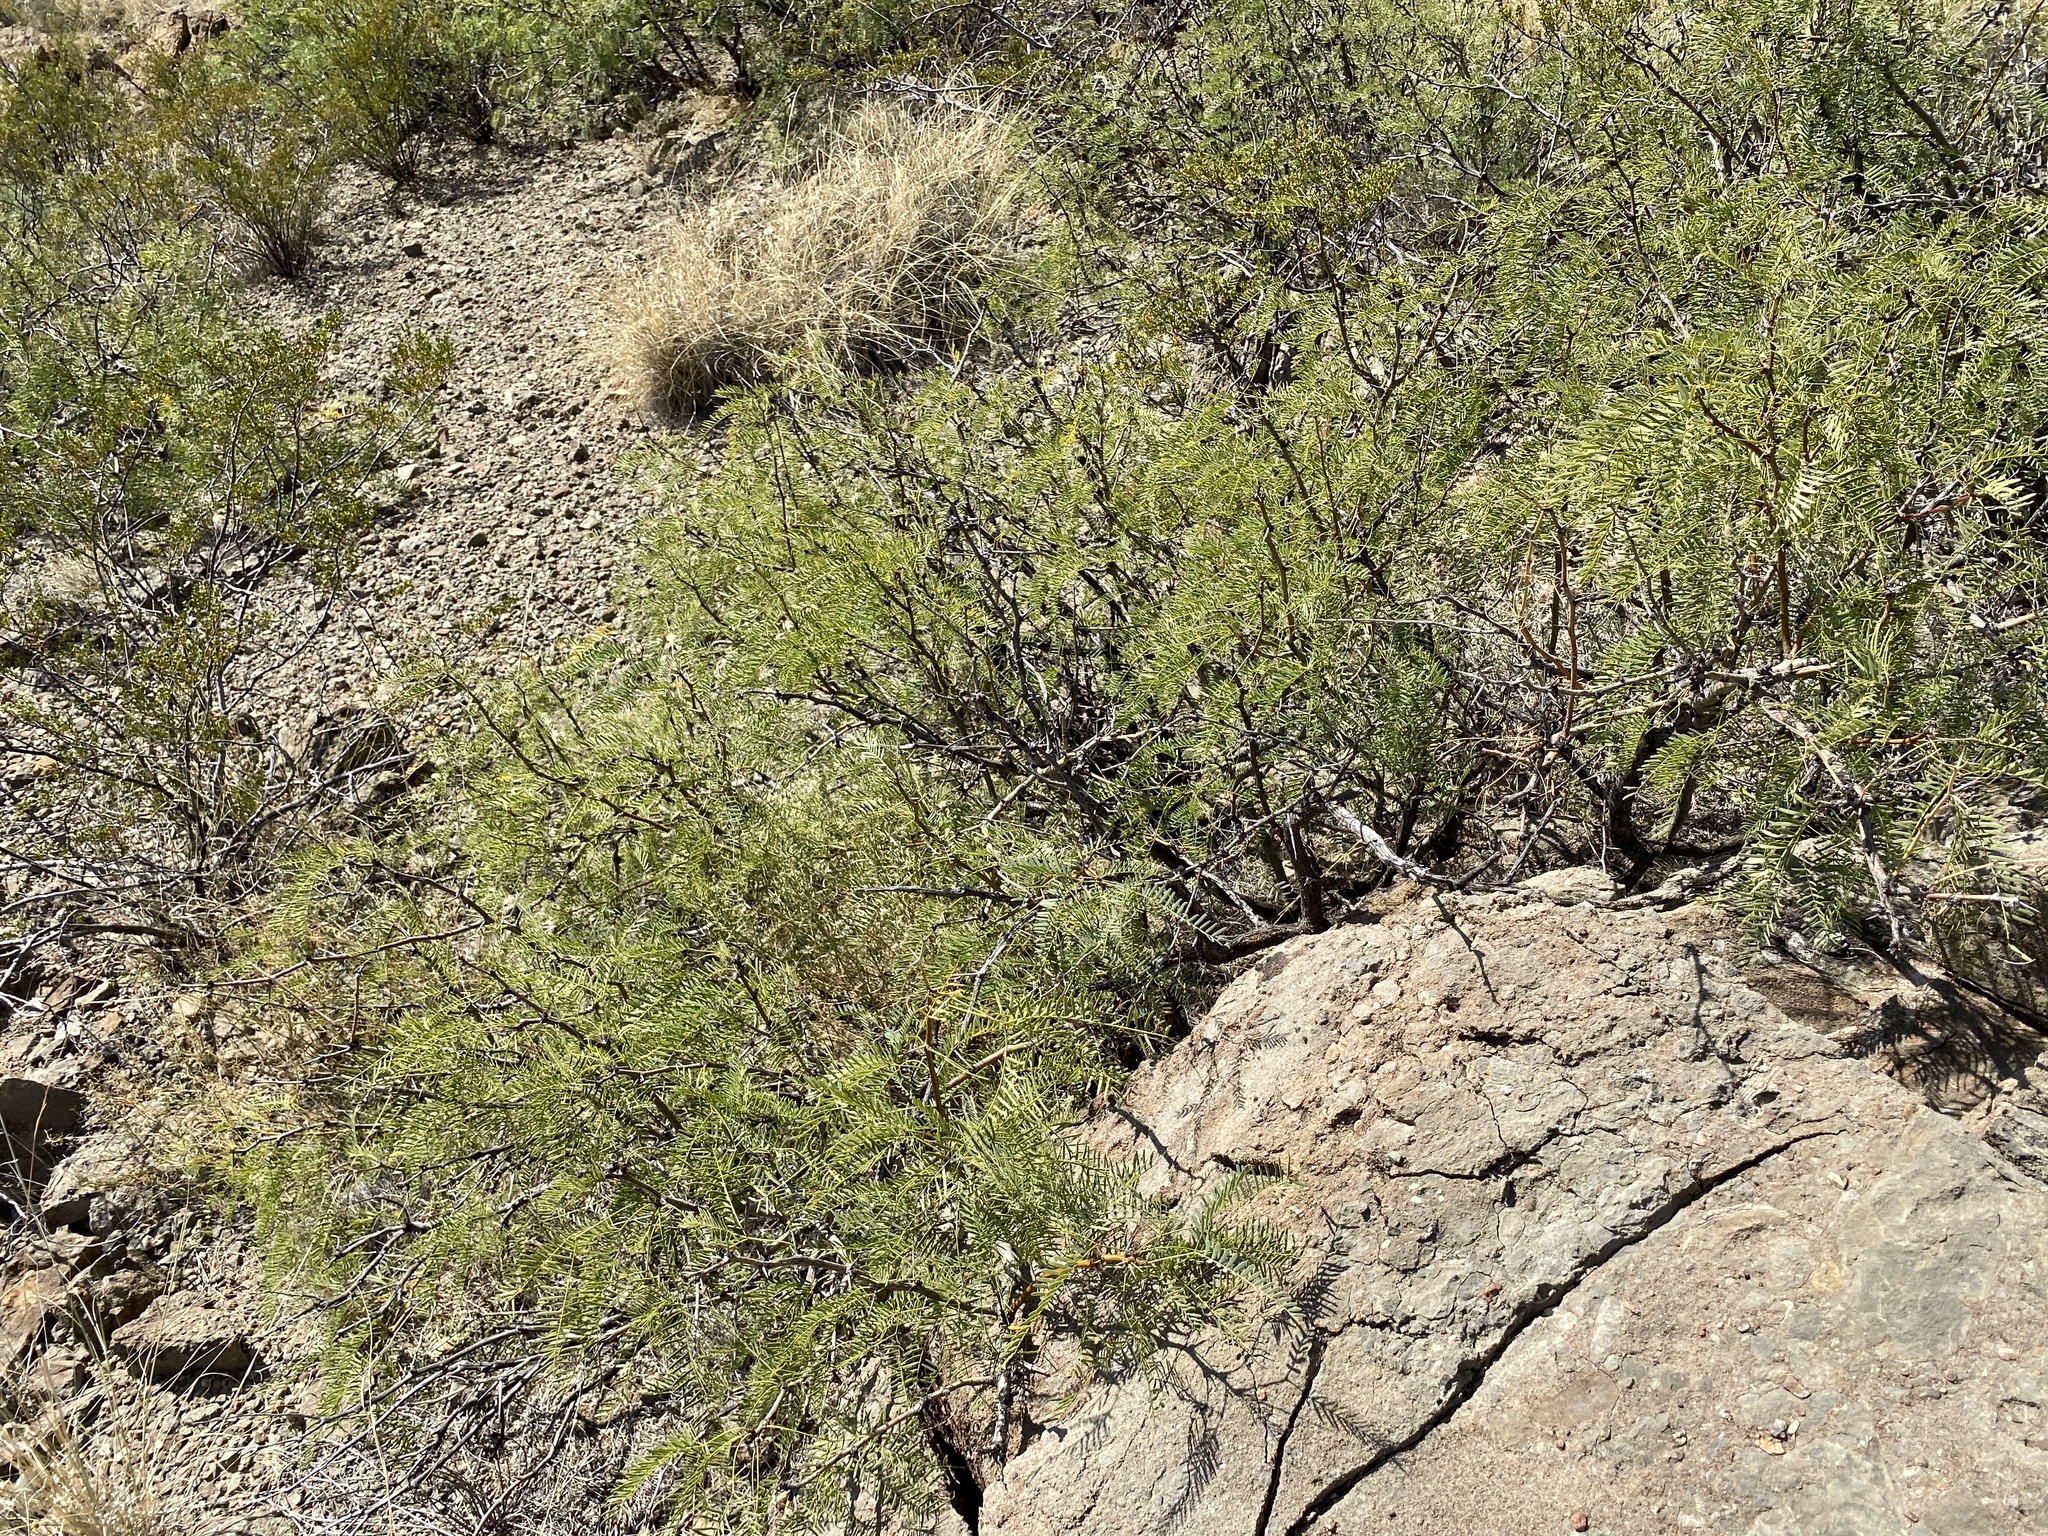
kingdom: Plantae
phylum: Tracheophyta
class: Magnoliopsida
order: Fabales
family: Fabaceae
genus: Prosopis
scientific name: Prosopis glandulosa
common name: Honey mesquite
